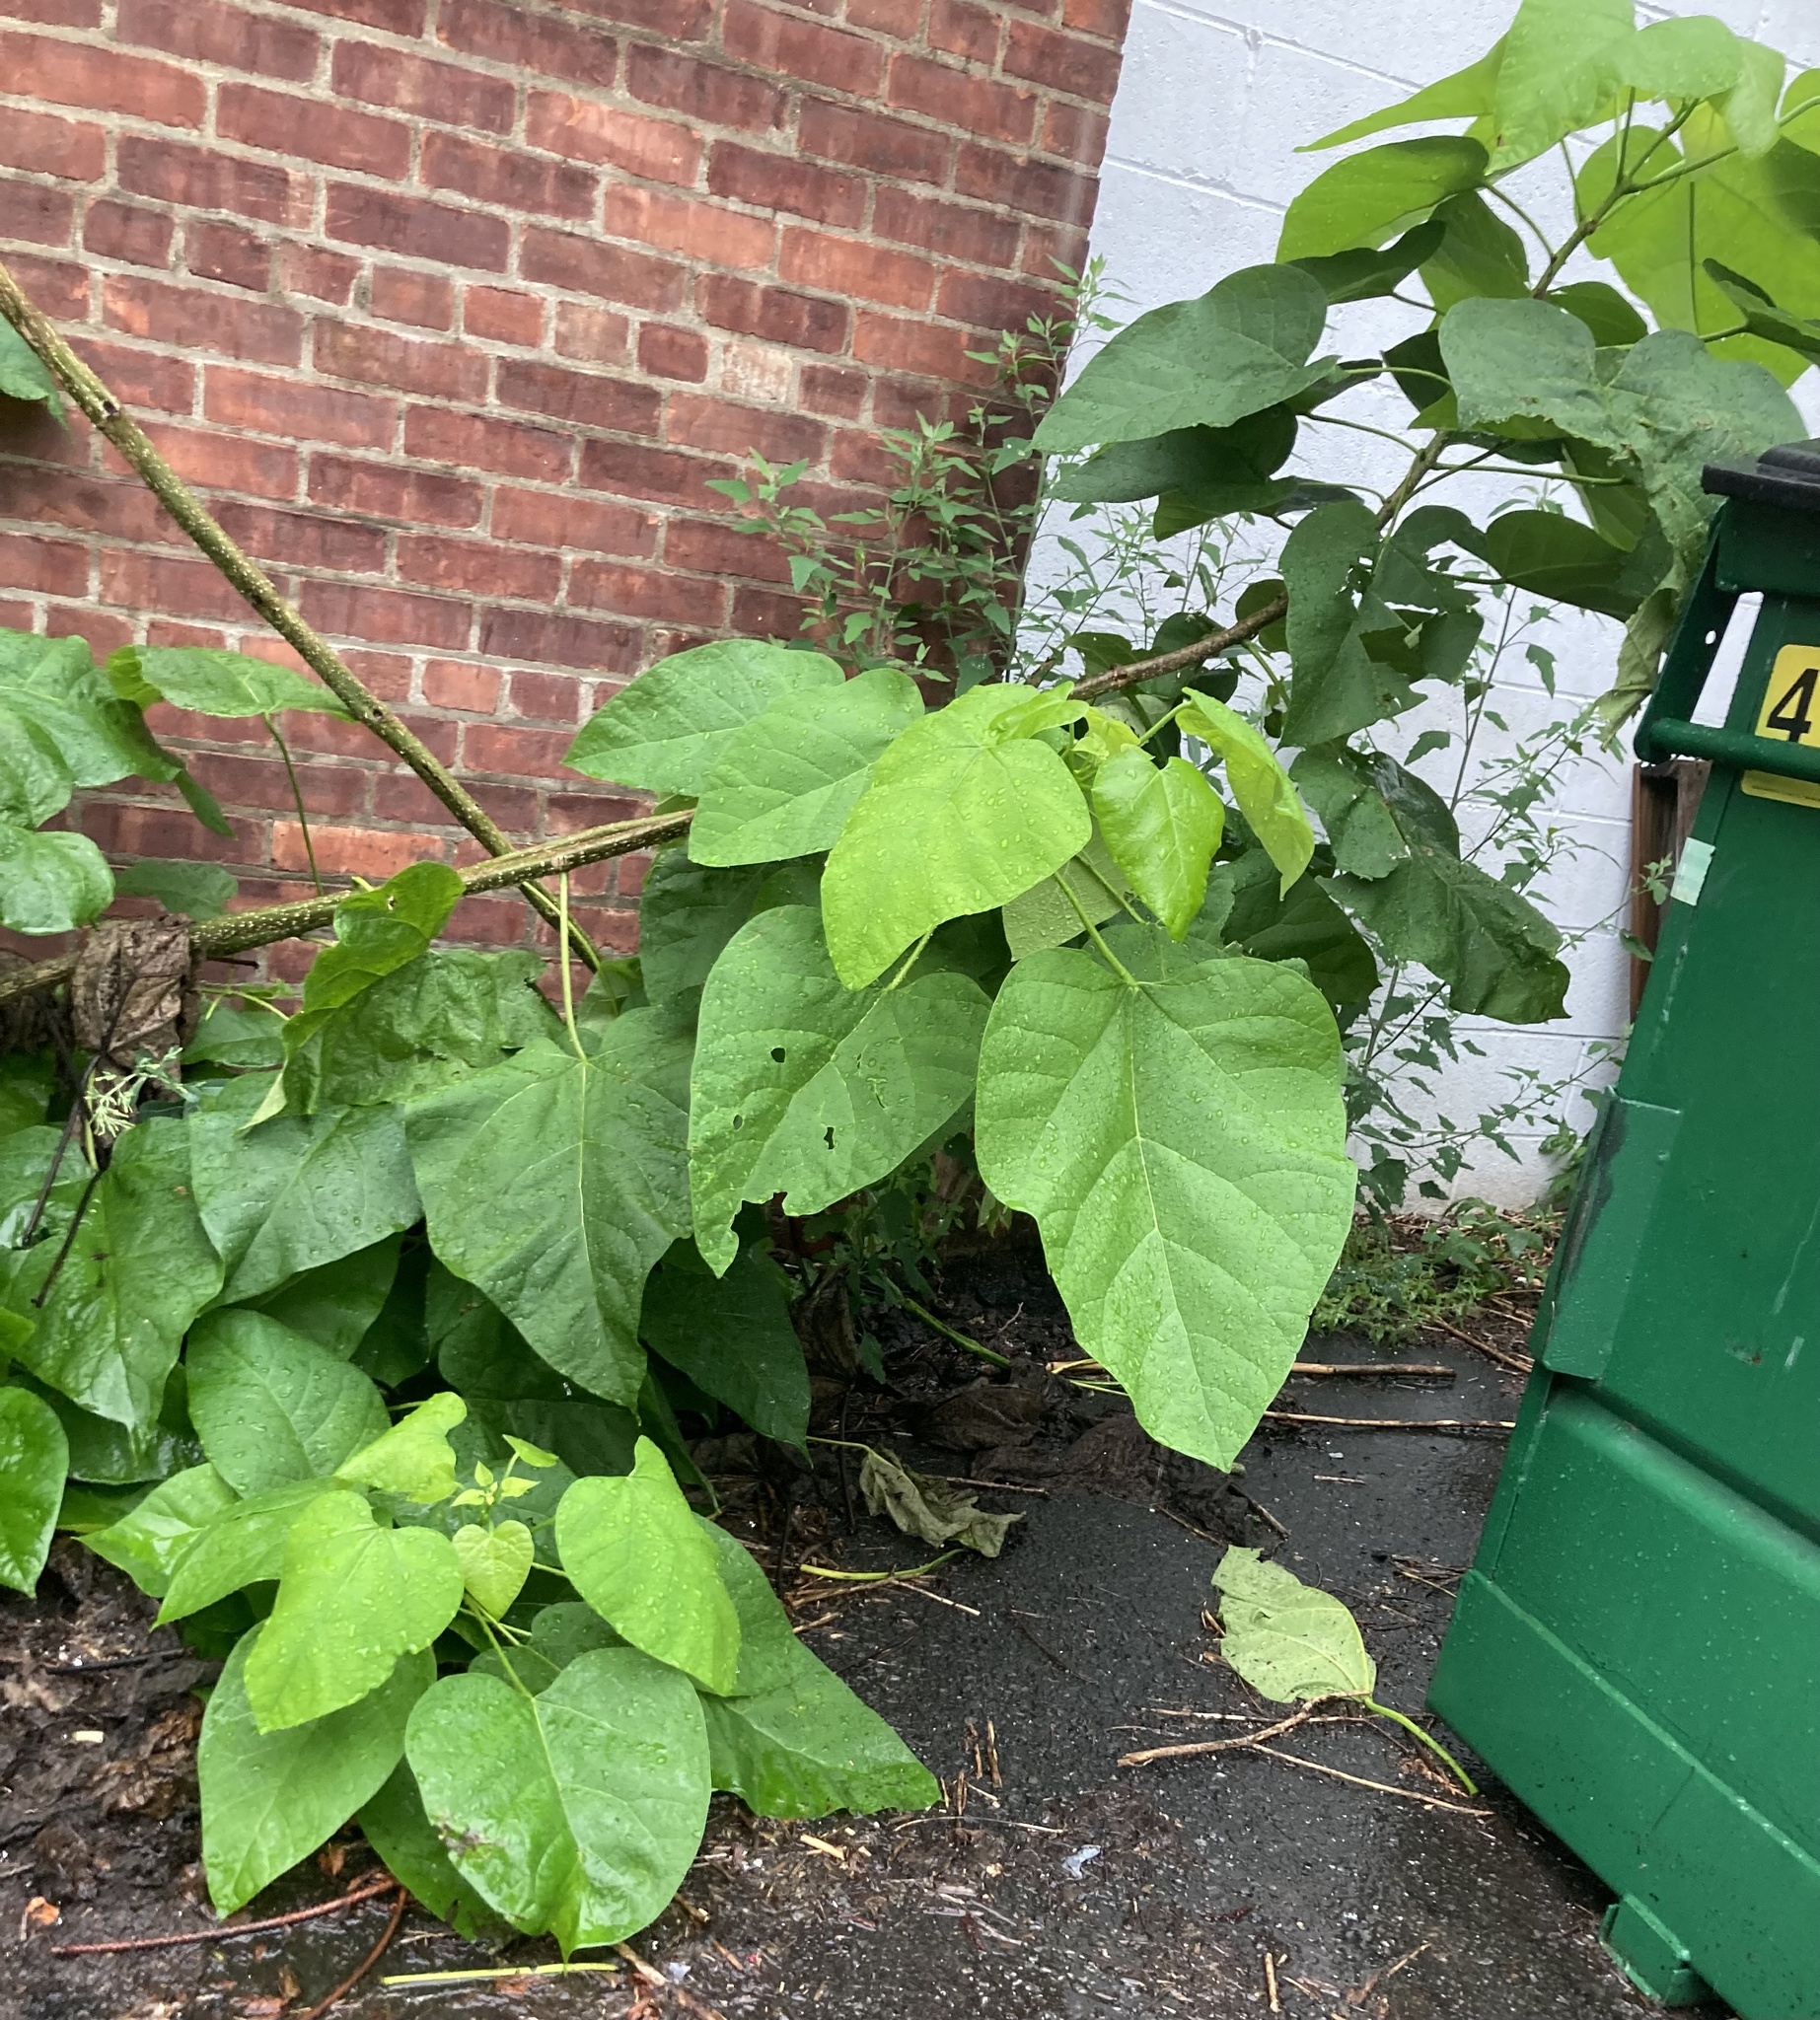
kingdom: Plantae
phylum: Tracheophyta
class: Magnoliopsida
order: Lamiales
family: Paulowniaceae
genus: Paulownia
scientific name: Paulownia tomentosa
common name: Foxglove-tree
